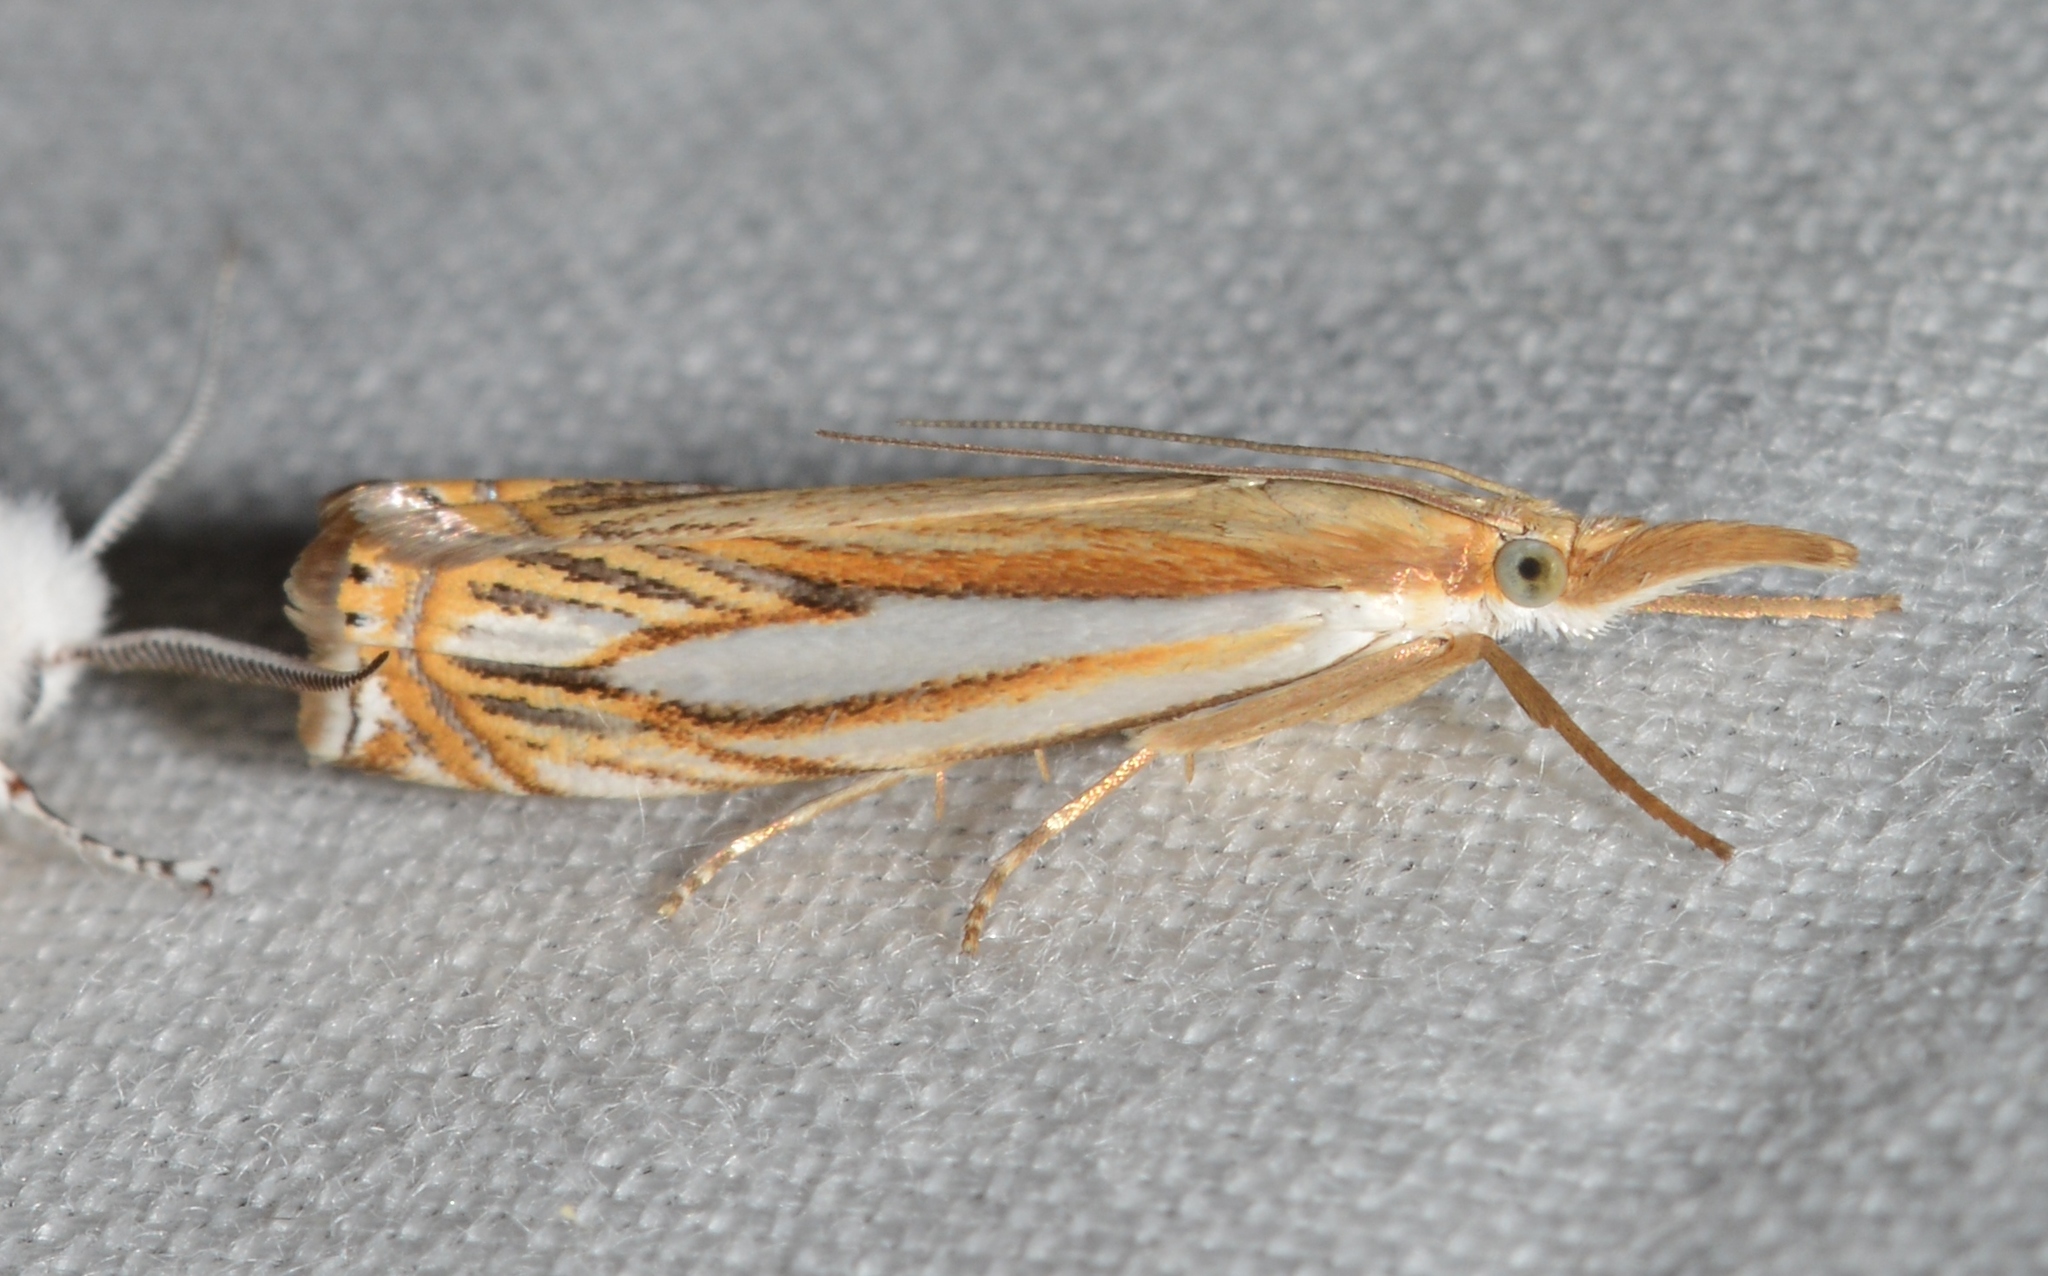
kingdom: Animalia
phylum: Arthropoda
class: Insecta
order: Lepidoptera
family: Crambidae
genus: Crambus
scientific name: Crambus saltuellus
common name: Pasture grass-veneer
